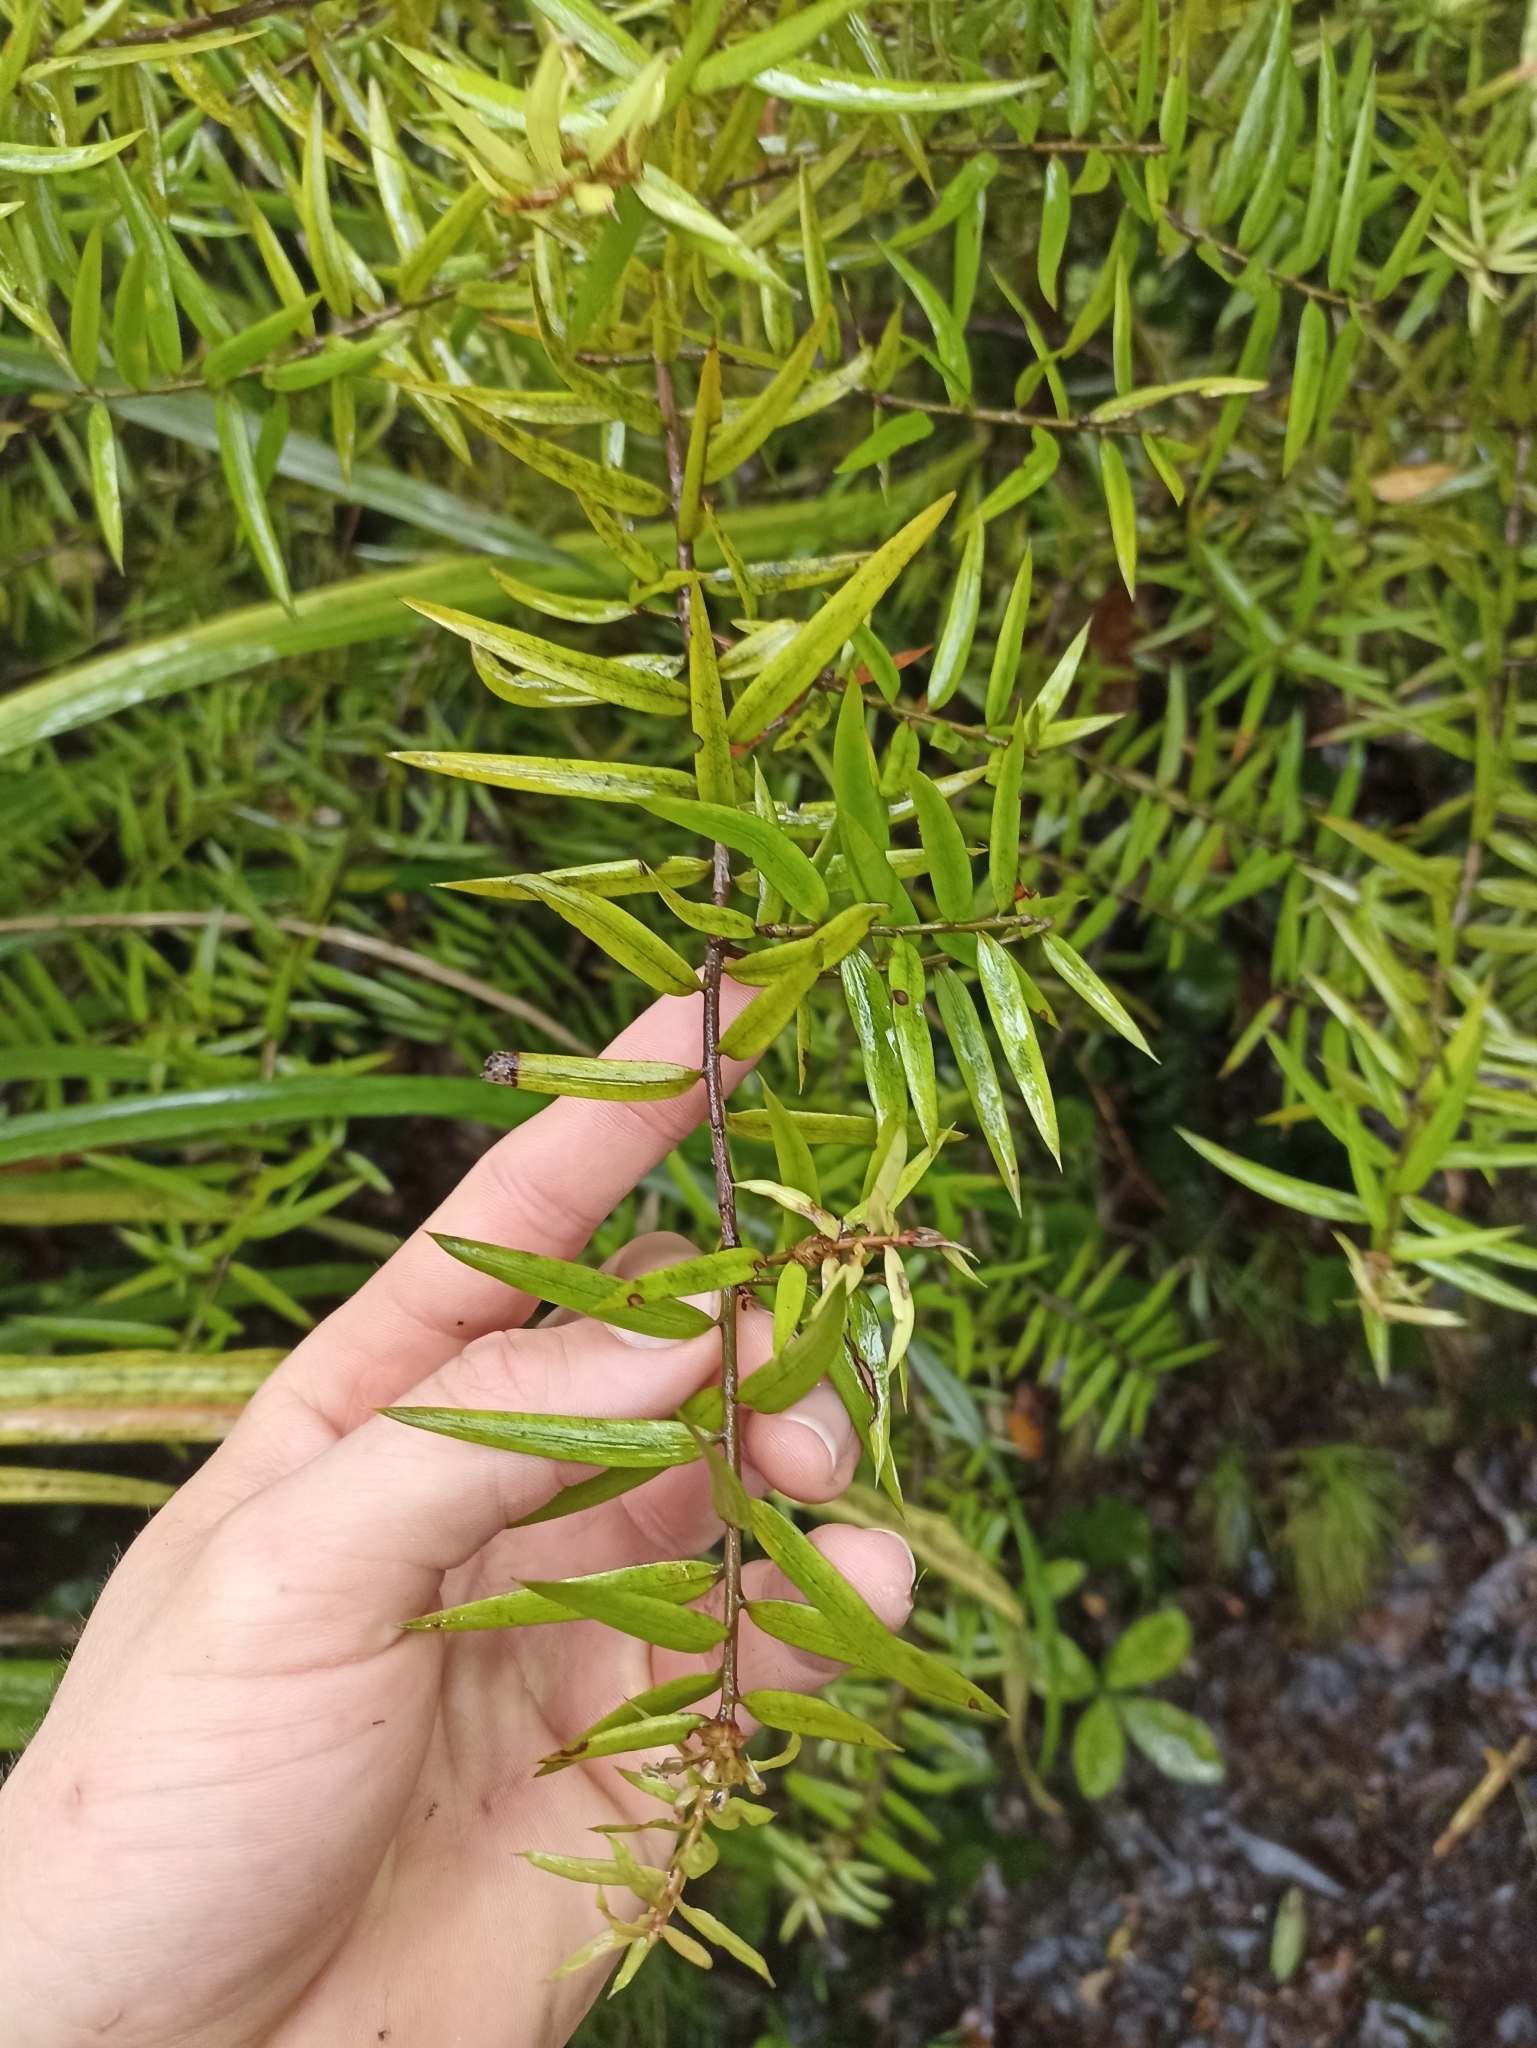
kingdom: Plantae
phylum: Tracheophyta
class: Pinopsida
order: Pinales
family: Podocarpaceae
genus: Podocarpus
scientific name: Podocarpus laetus
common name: Hall's totara
